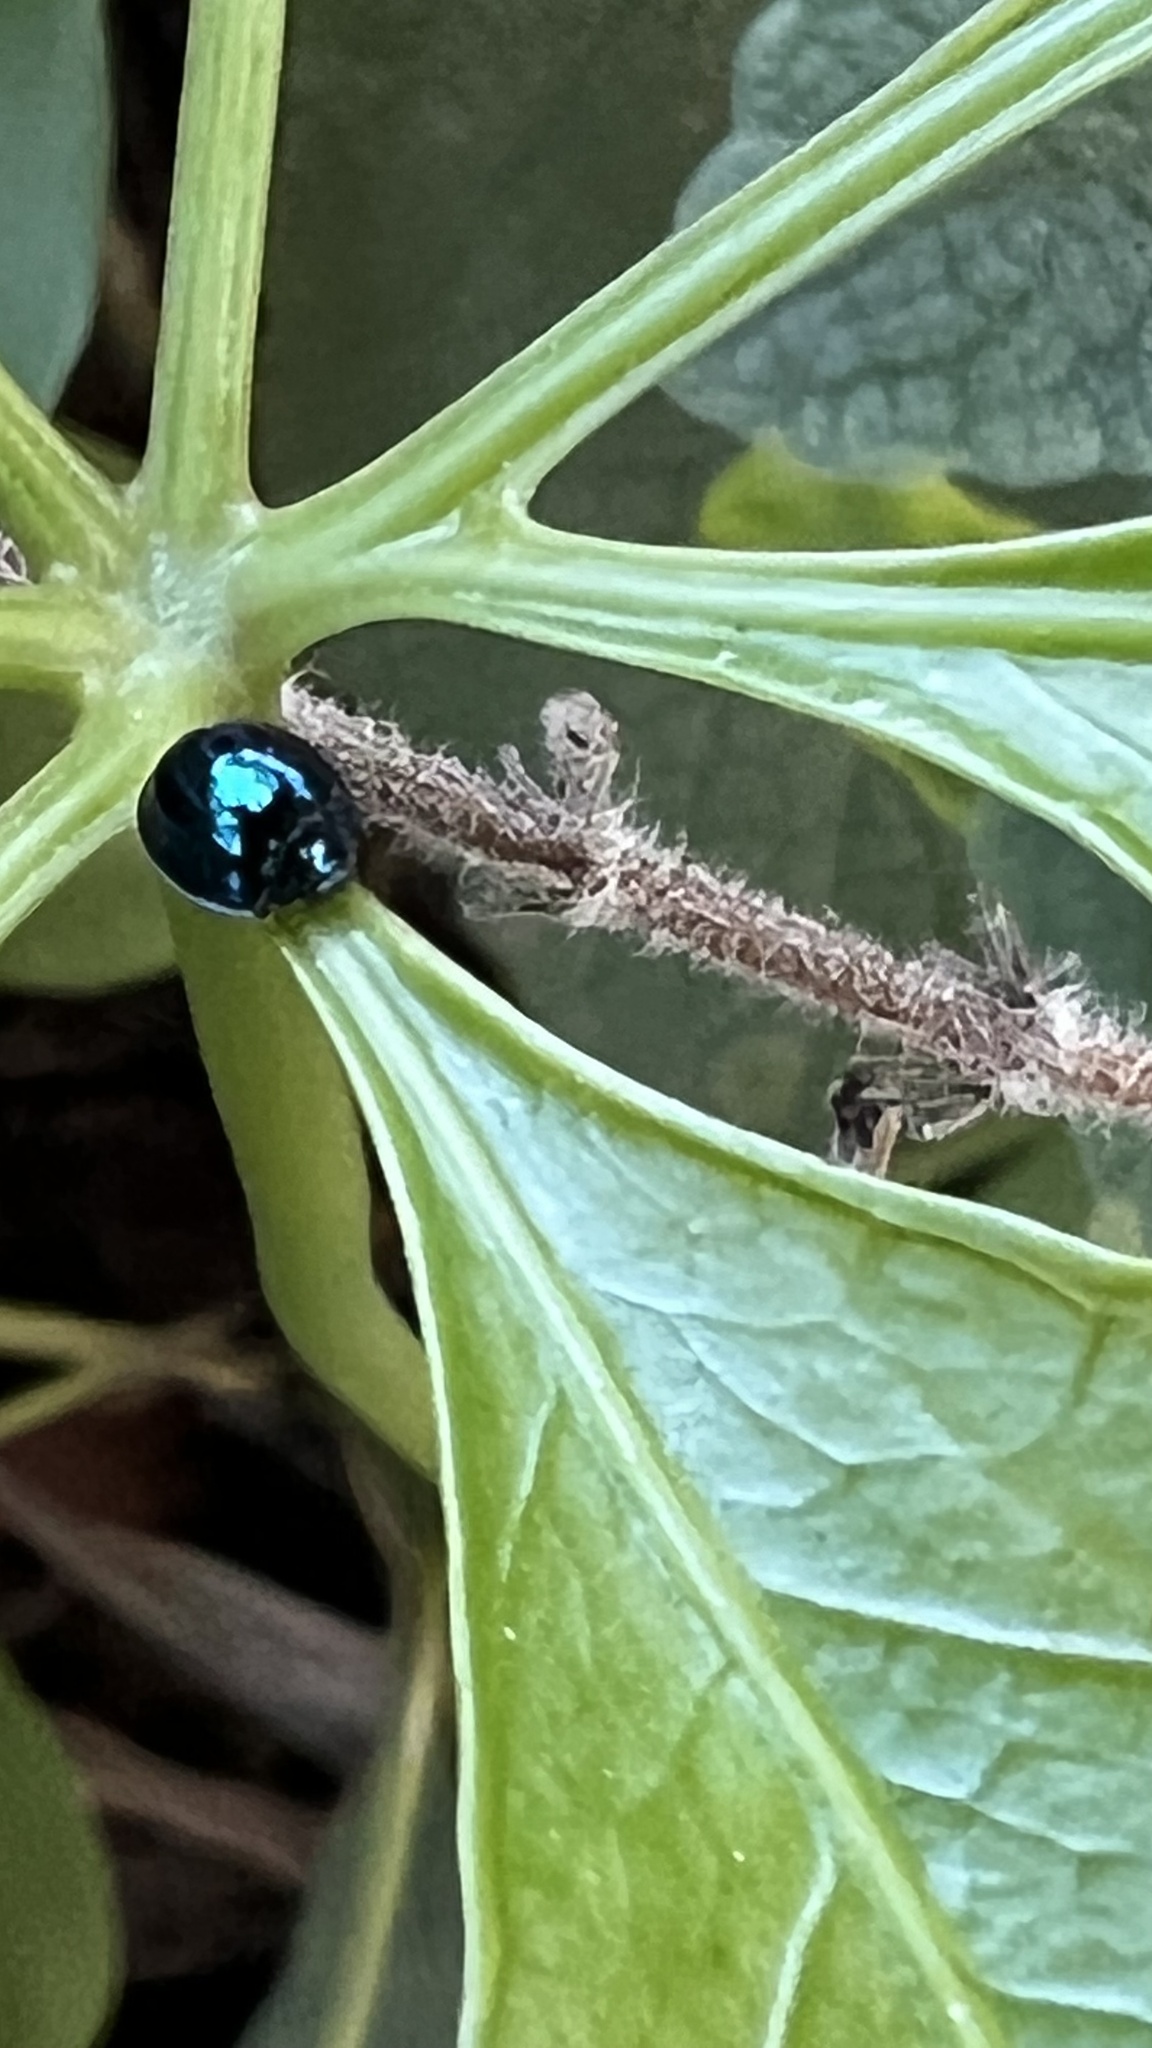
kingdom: Animalia
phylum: Arthropoda
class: Insecta
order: Coleoptera
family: Coccinellidae
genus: Halmus
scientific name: Halmus chalybeus
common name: Steel blue ladybird beetle
